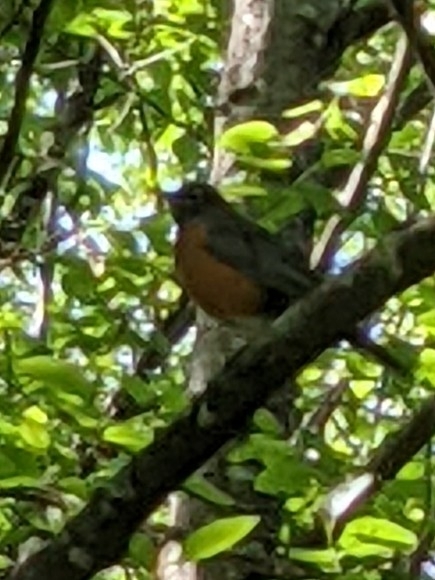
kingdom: Animalia
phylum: Chordata
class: Aves
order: Passeriformes
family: Turdidae
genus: Turdus
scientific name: Turdus migratorius
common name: American robin
